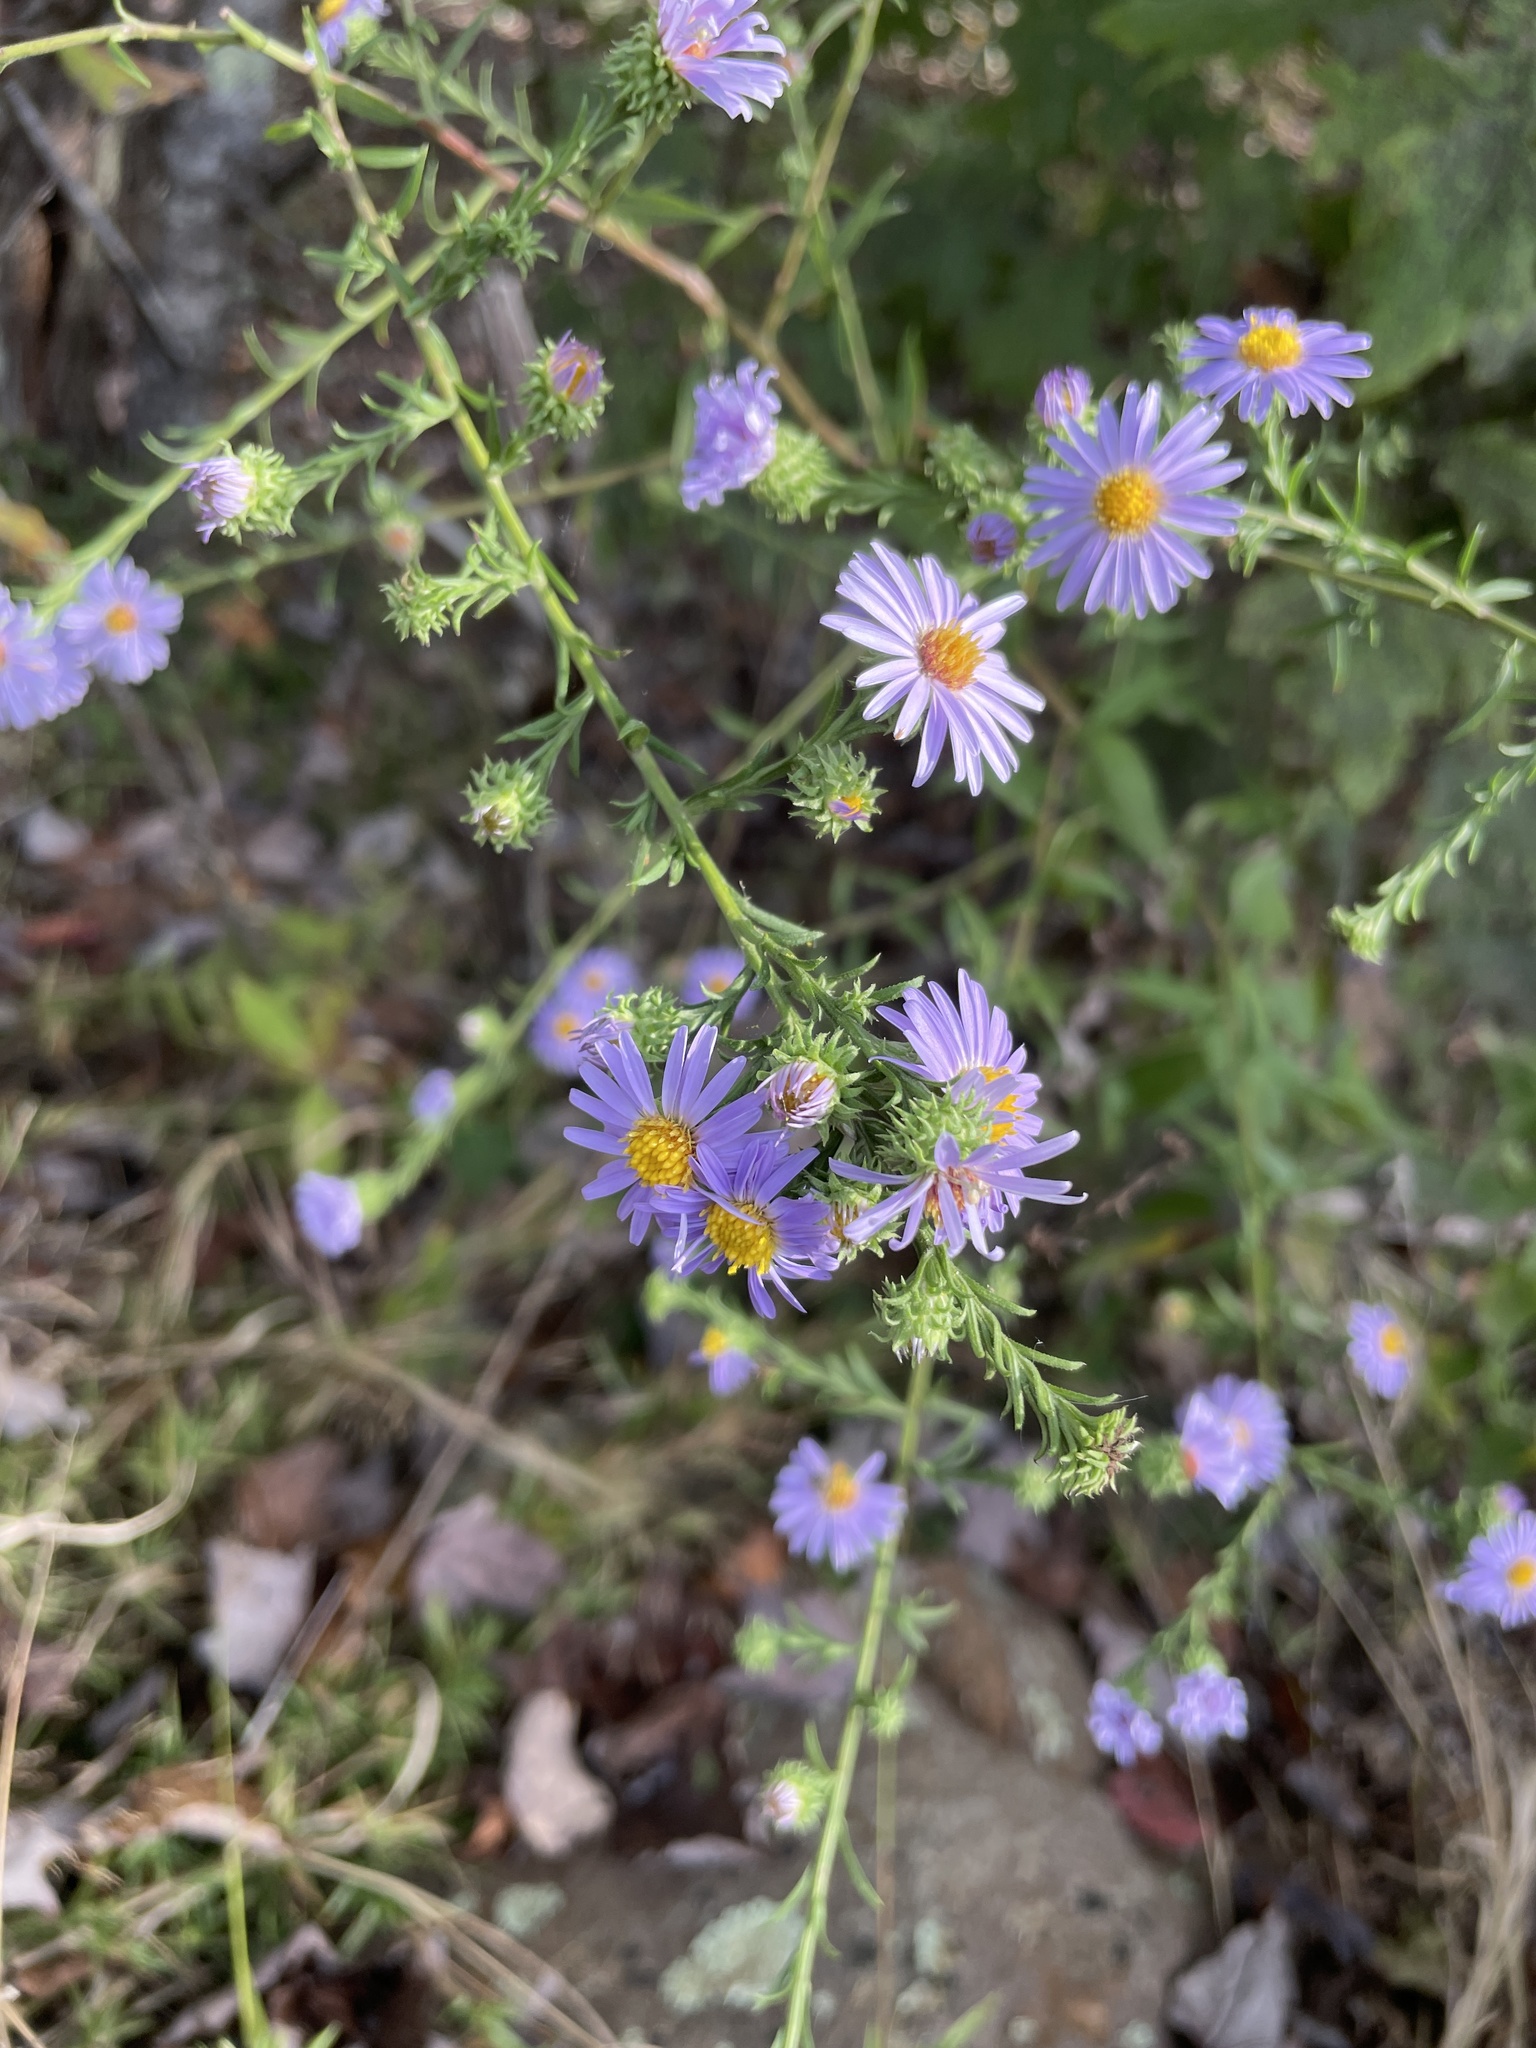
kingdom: Plantae
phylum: Tracheophyta
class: Magnoliopsida
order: Asterales
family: Asteraceae
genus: Symphyotrichum
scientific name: Symphyotrichum anomalum
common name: Many-ray aster
